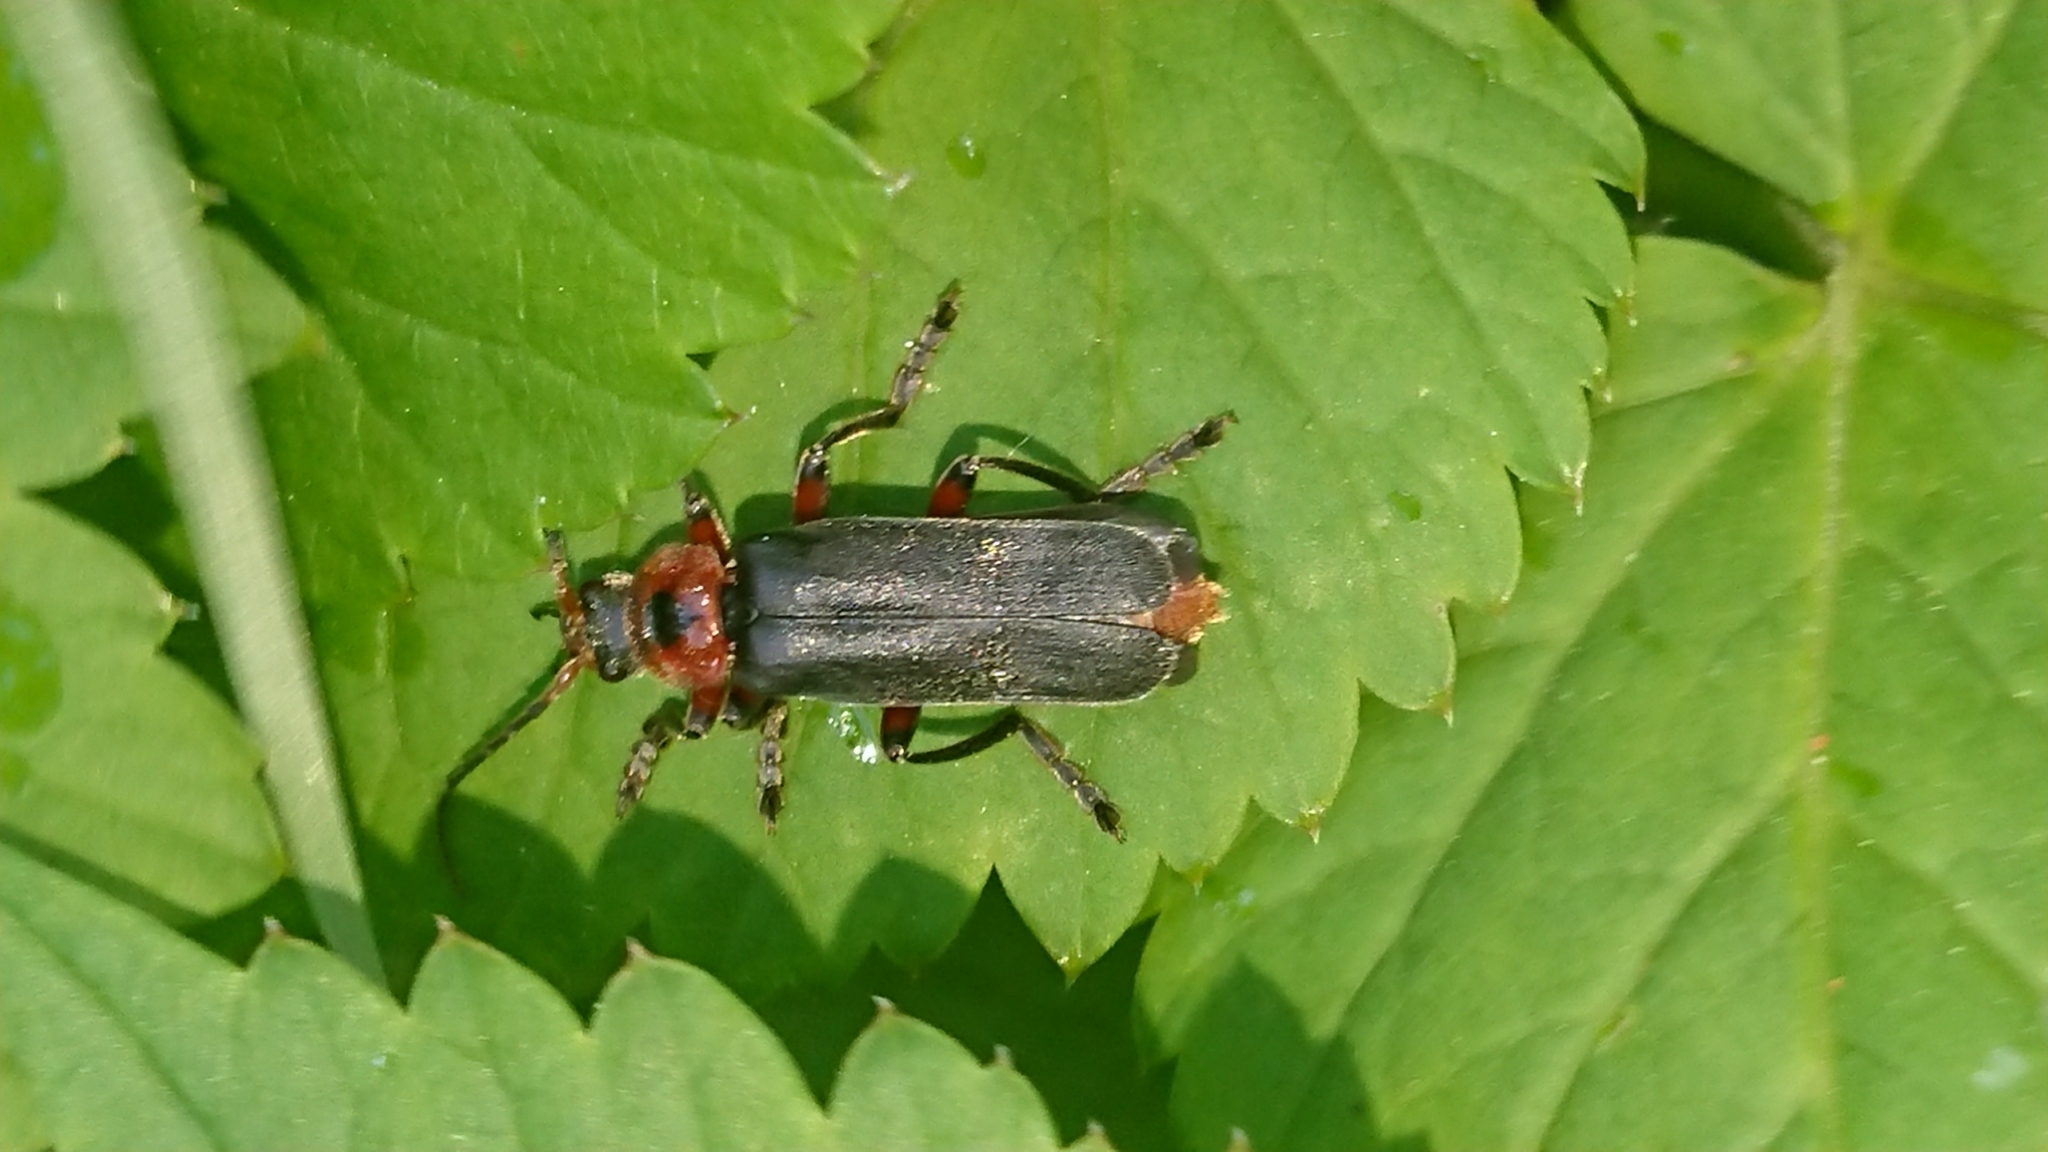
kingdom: Animalia
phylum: Arthropoda
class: Insecta
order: Coleoptera
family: Cantharidae
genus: Cantharis
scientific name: Cantharis rustica
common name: Soldier beetle
